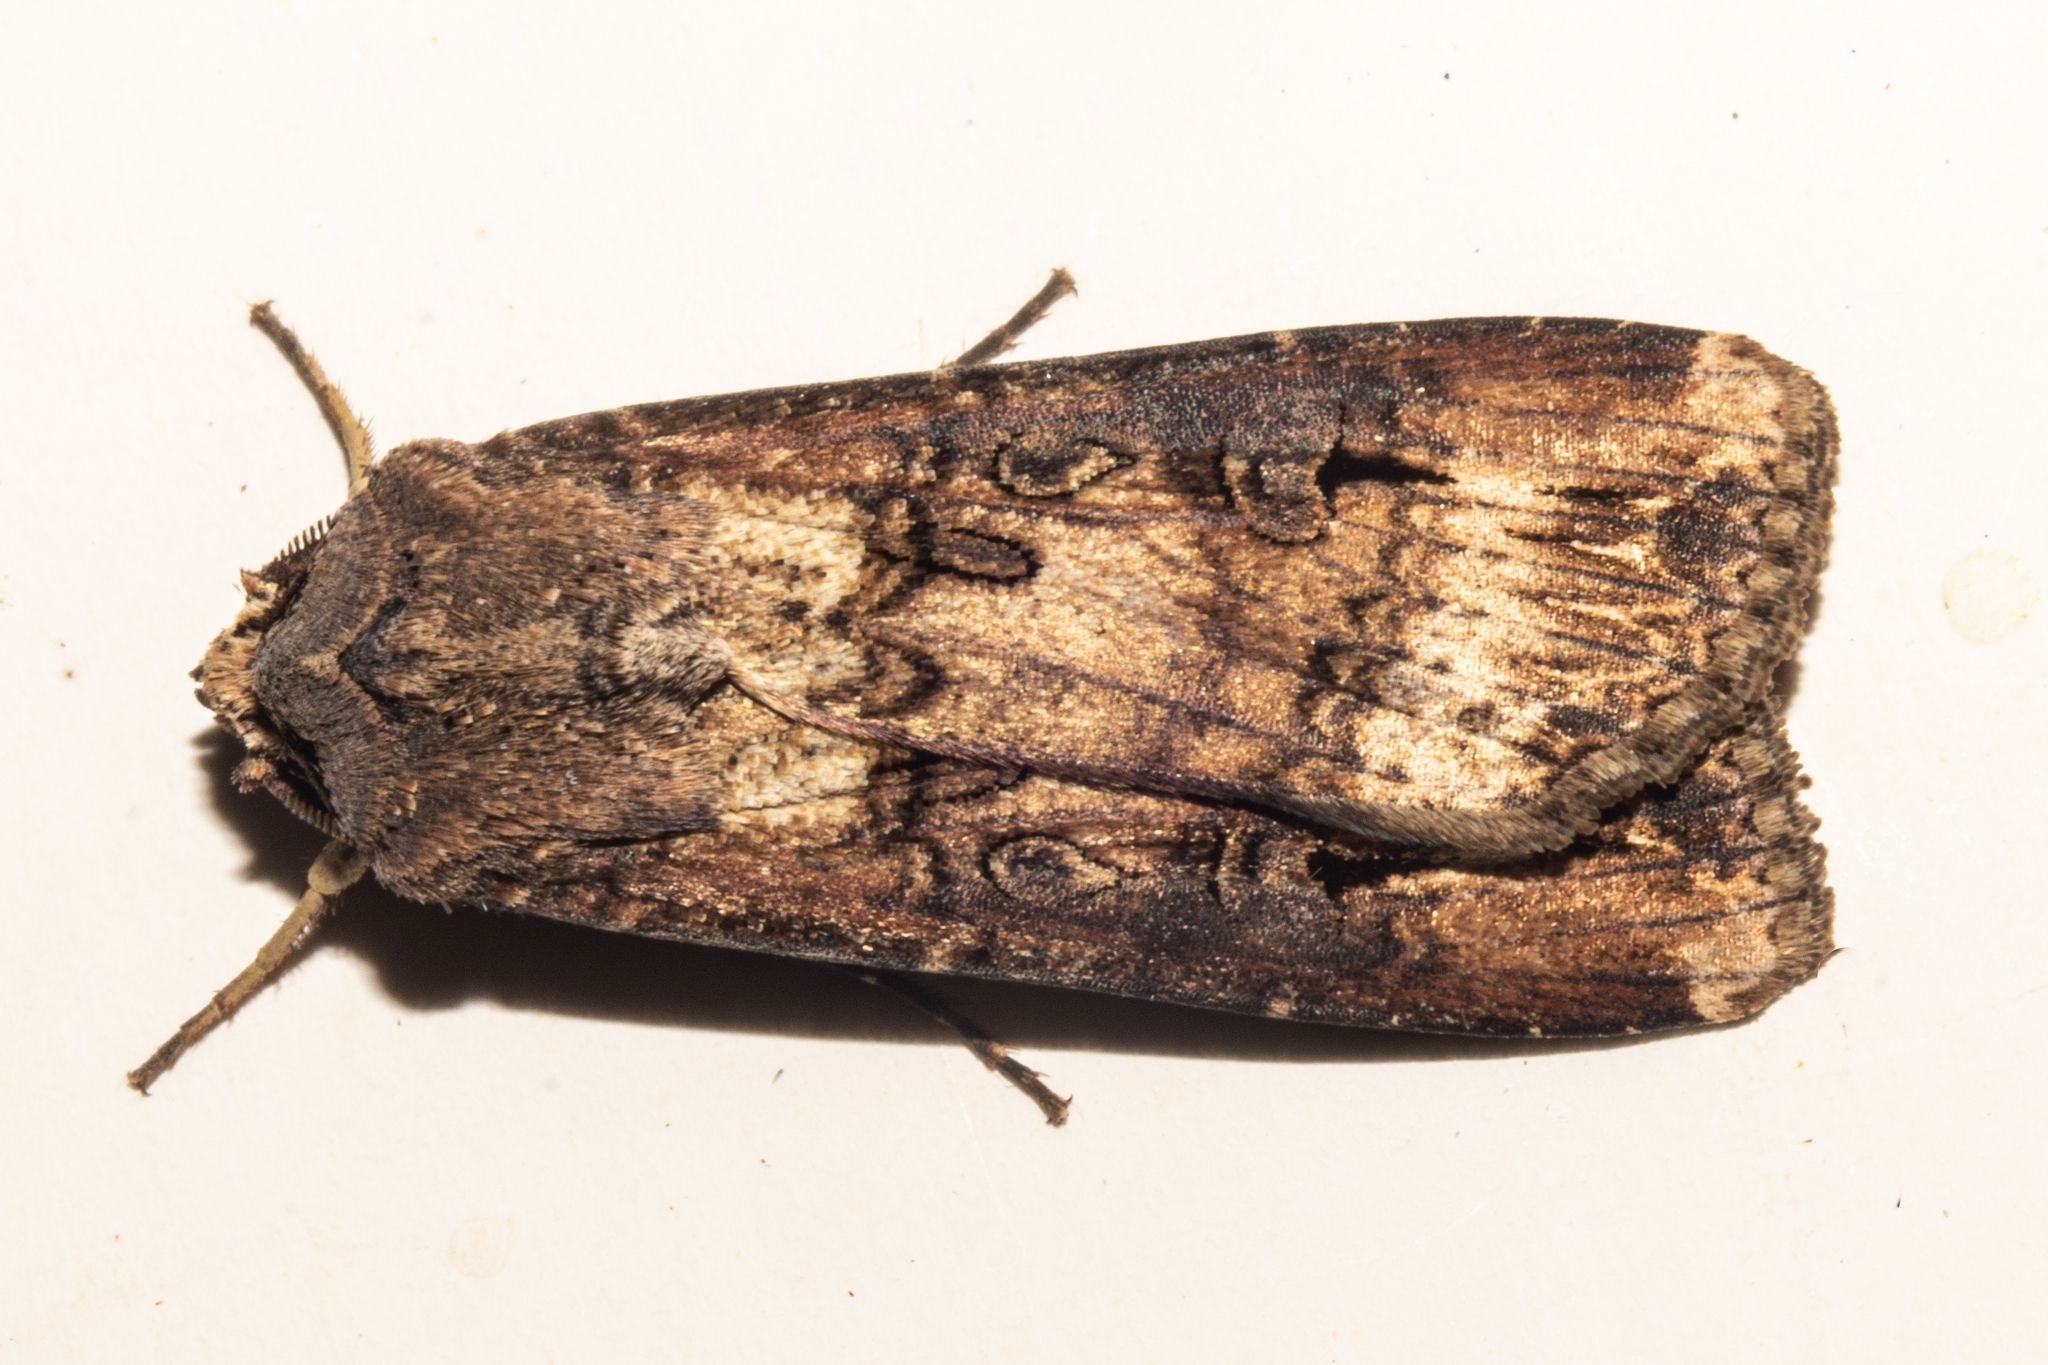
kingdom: Animalia
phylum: Arthropoda
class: Insecta
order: Lepidoptera
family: Noctuidae
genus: Agrotis
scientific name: Agrotis ipsilon
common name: Dark sword-grass
